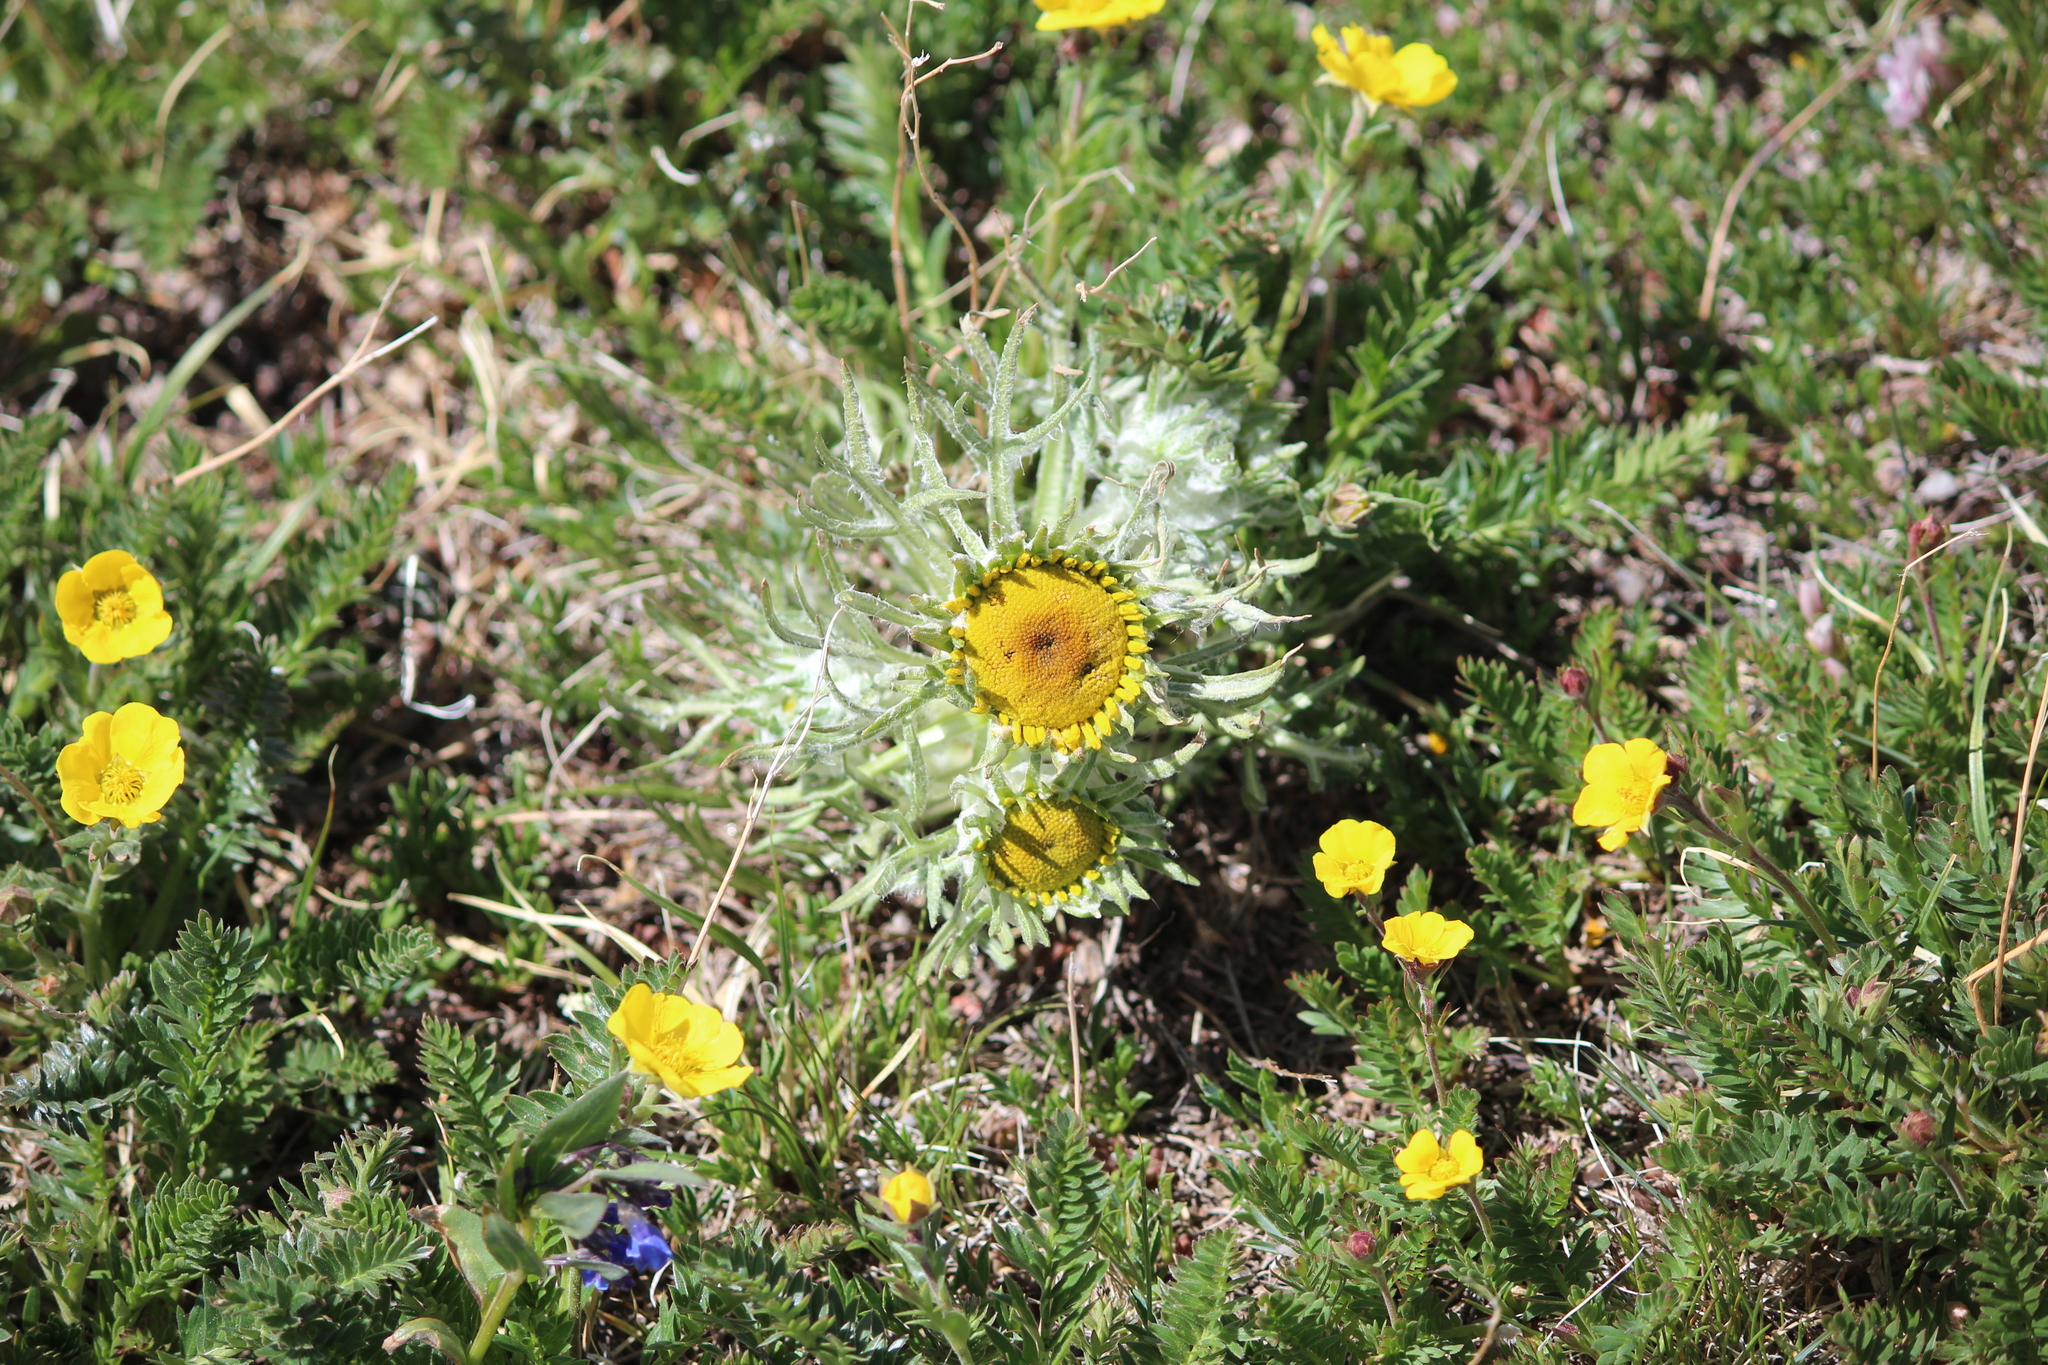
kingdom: Plantae
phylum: Tracheophyta
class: Magnoliopsida
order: Asterales
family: Asteraceae
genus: Hymenoxys
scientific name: Hymenoxys grandiflora
